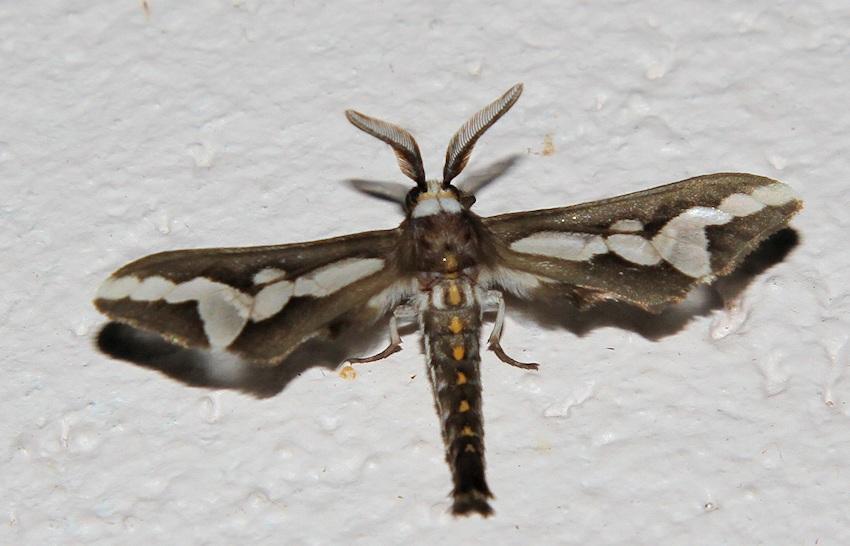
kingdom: Animalia
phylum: Arthropoda
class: Insecta
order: Lepidoptera
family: Erebidae
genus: Thyretes
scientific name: Thyretes caffra
